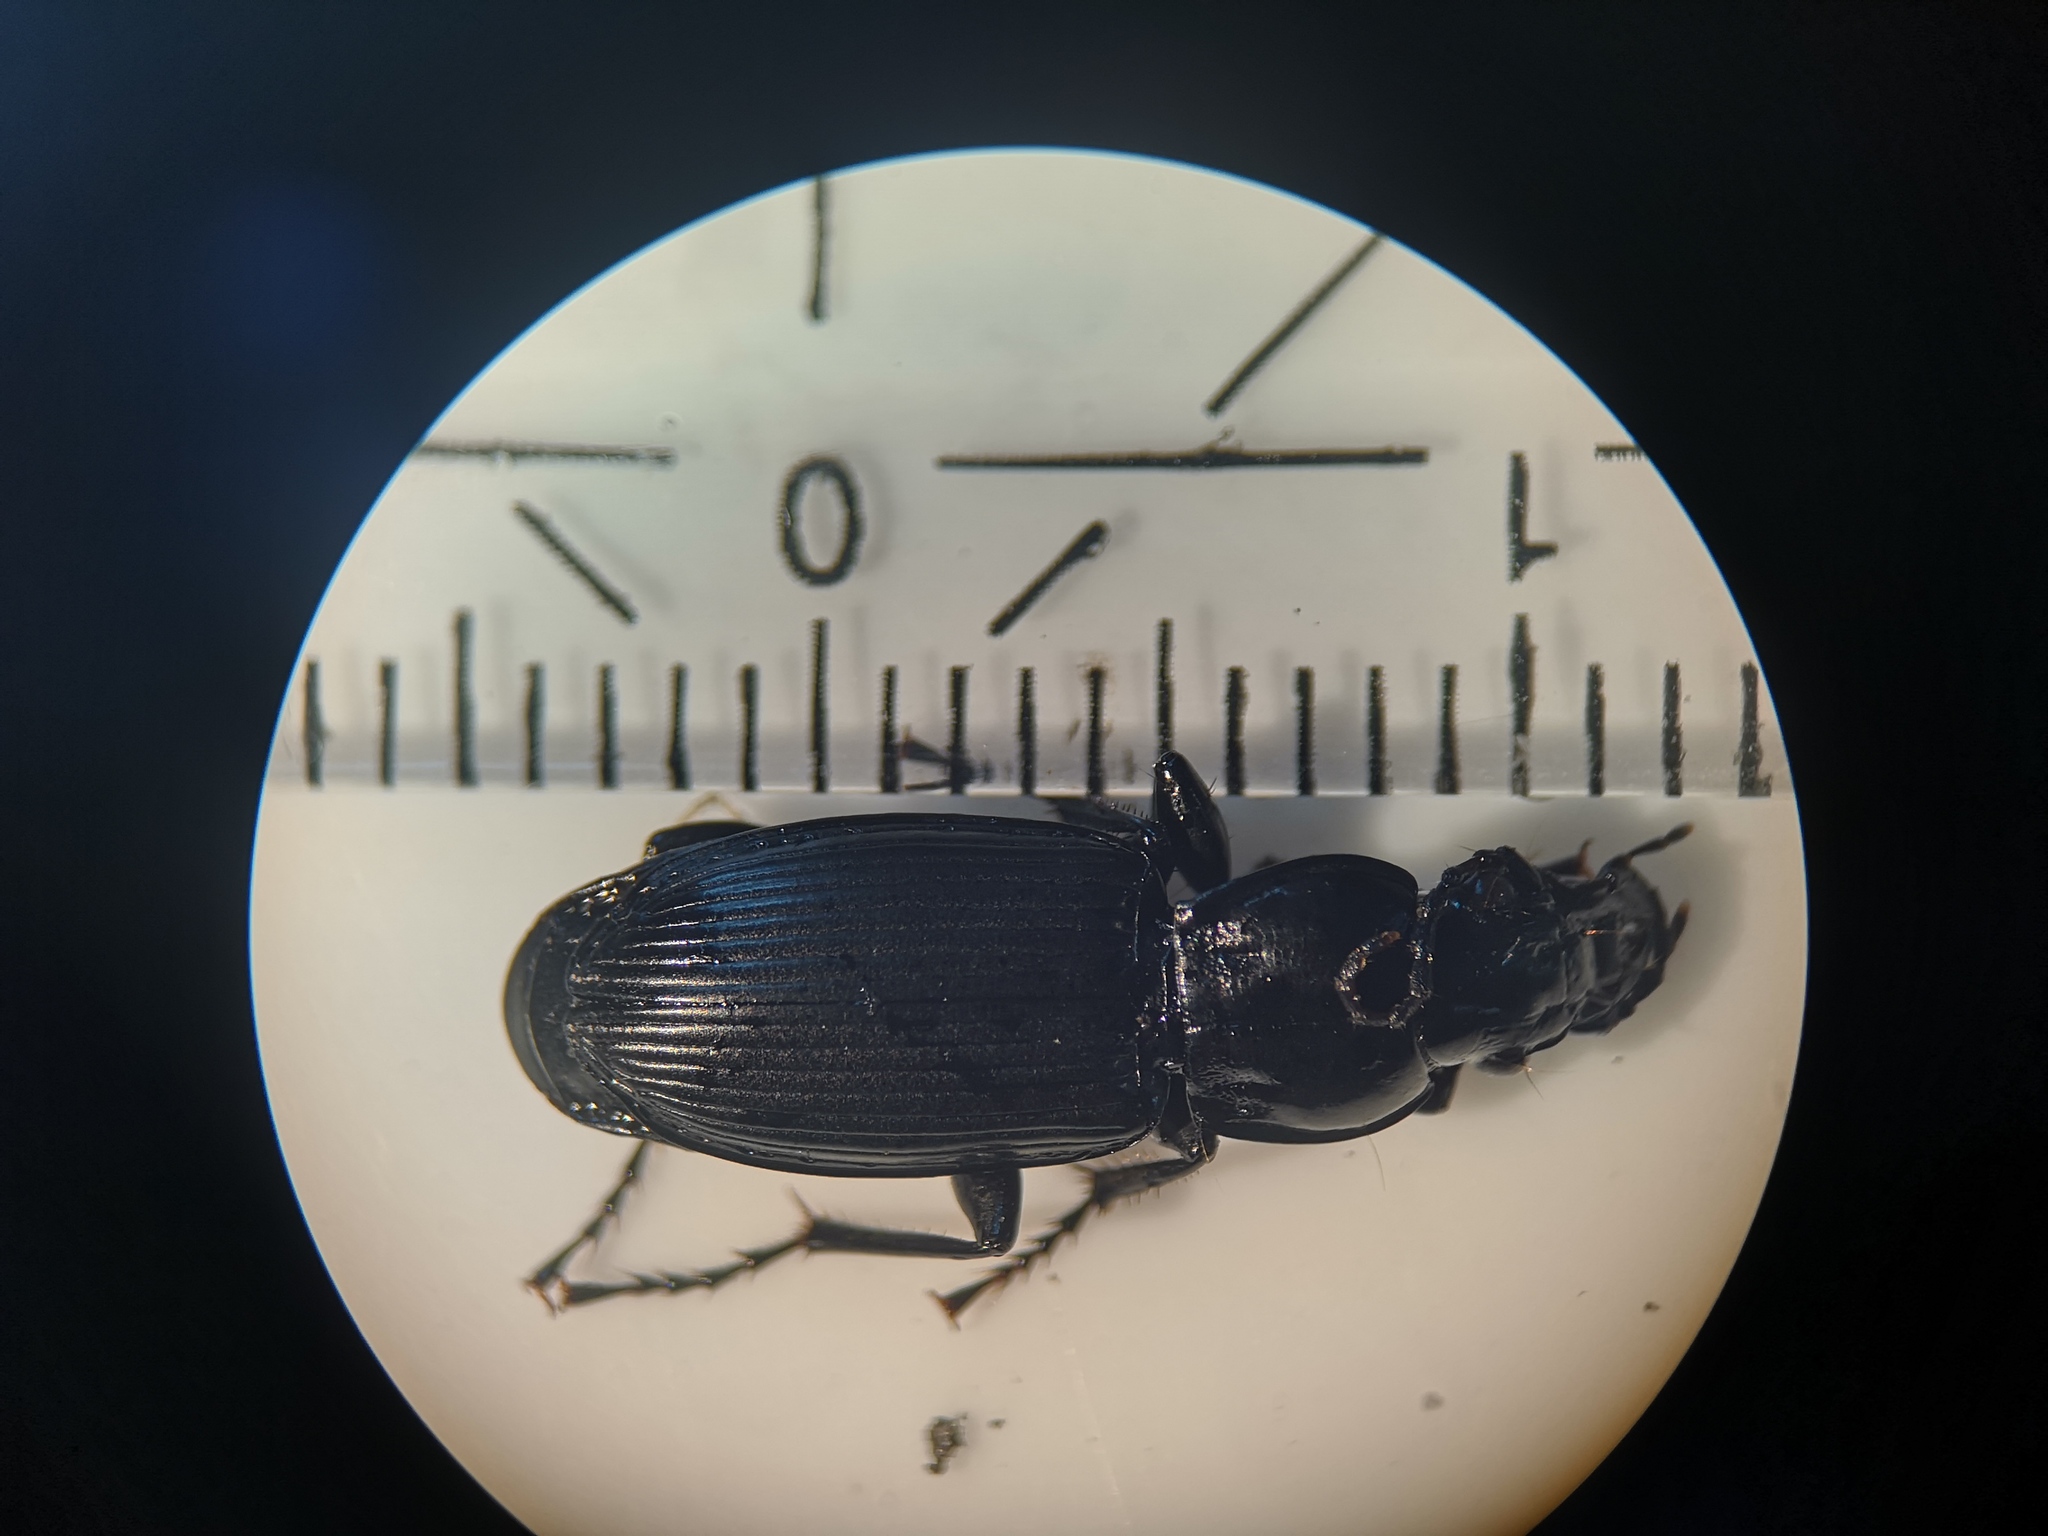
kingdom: Animalia
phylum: Arthropoda
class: Insecta
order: Coleoptera
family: Carabidae
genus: Pterostichus
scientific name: Pterostichus melanarius
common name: European dark harp ground beetle
